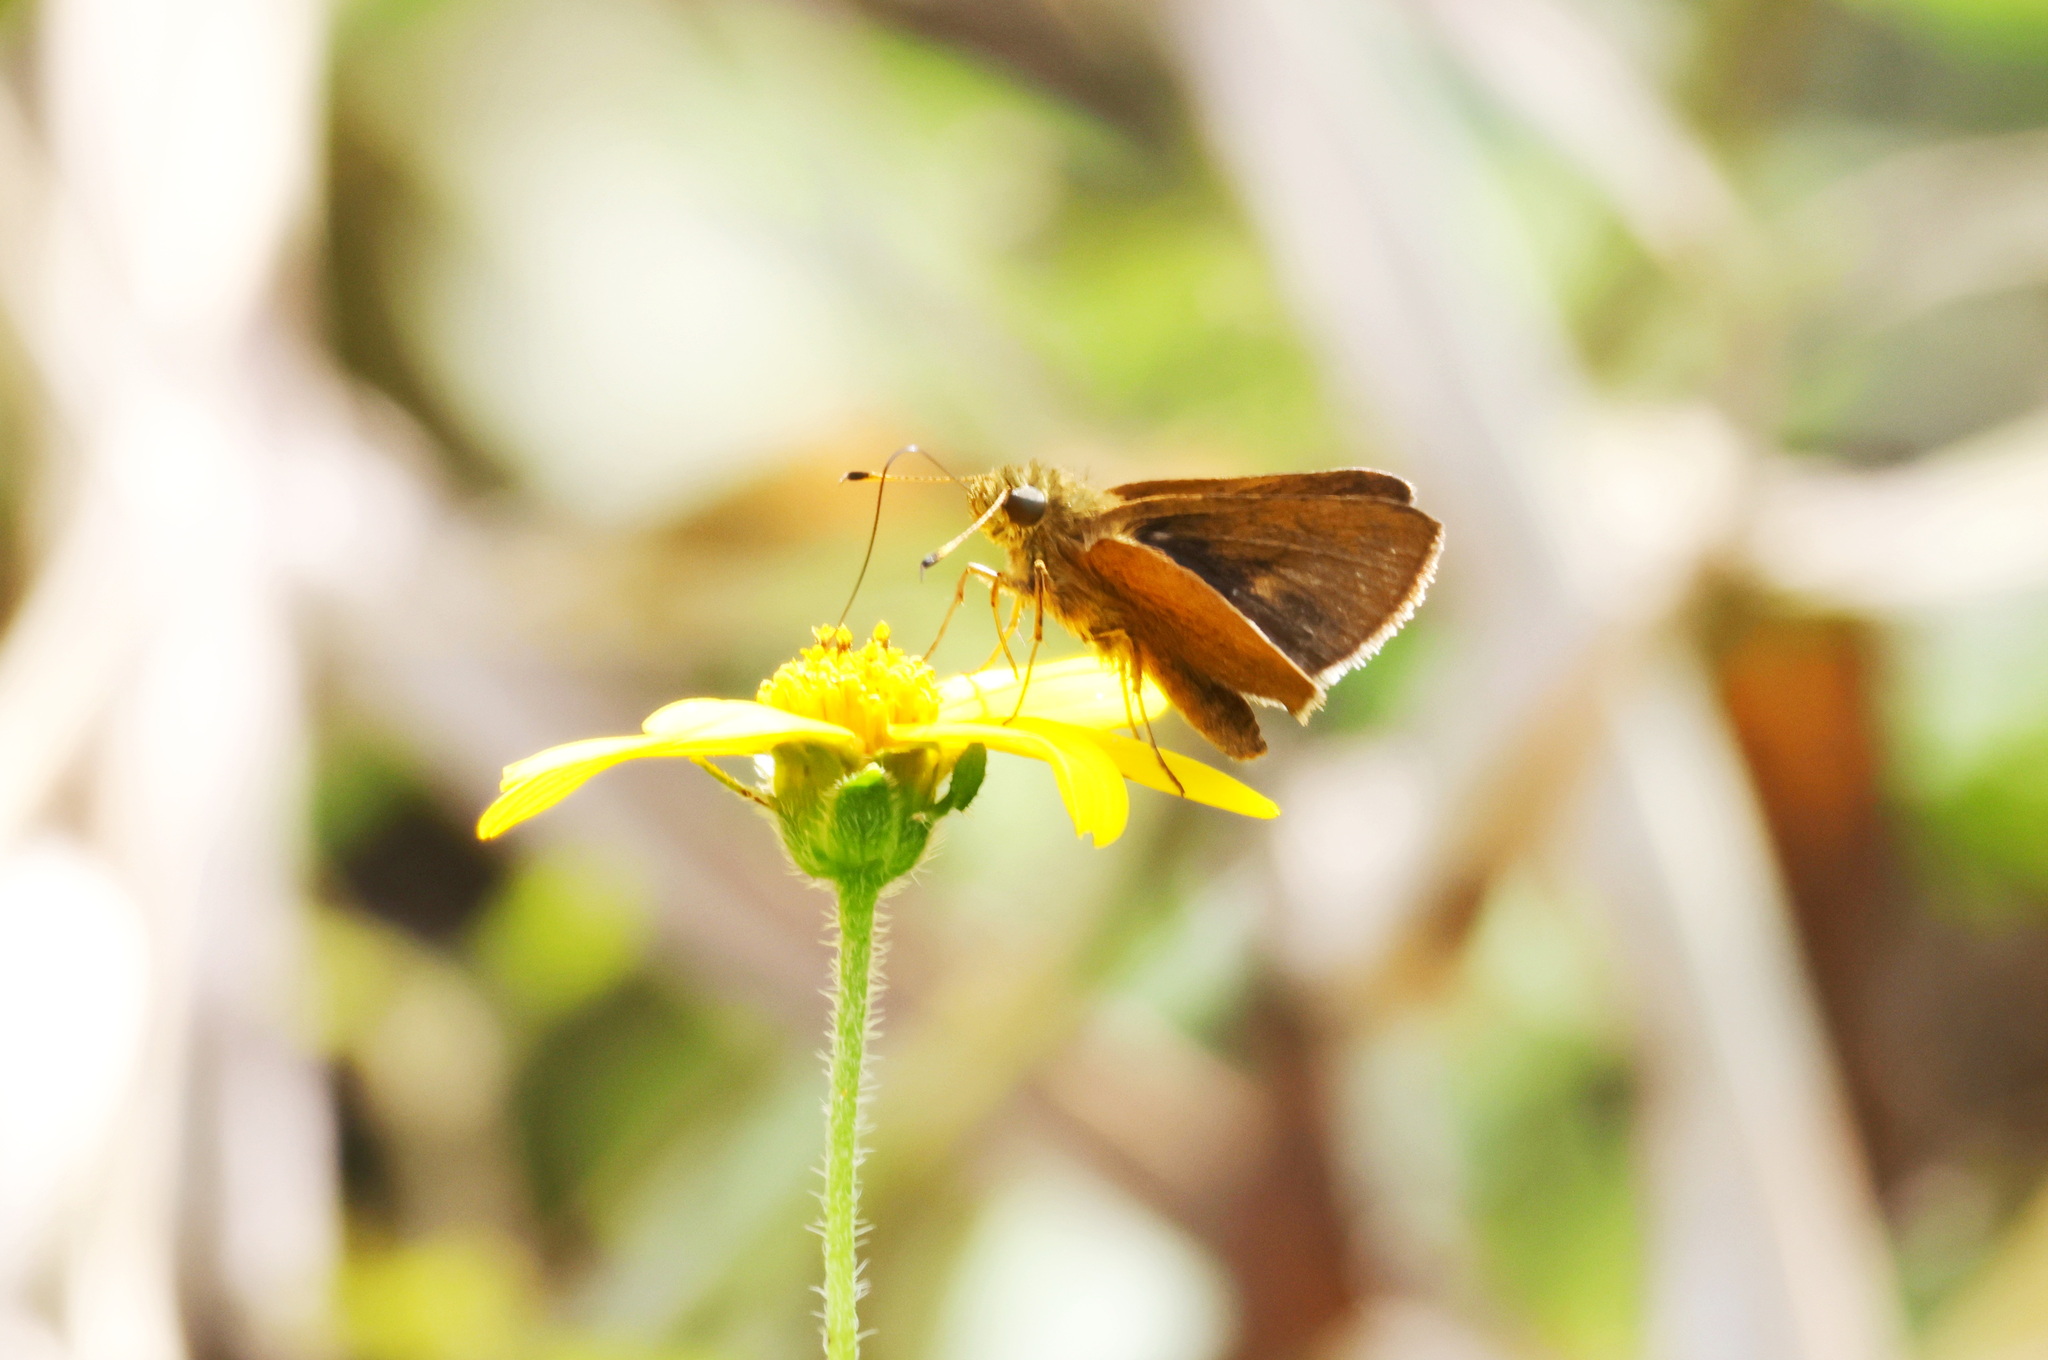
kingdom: Animalia
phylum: Arthropoda
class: Insecta
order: Lepidoptera
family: Hesperiidae
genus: Corticea
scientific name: Corticea corticea
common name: Redundant skipper
